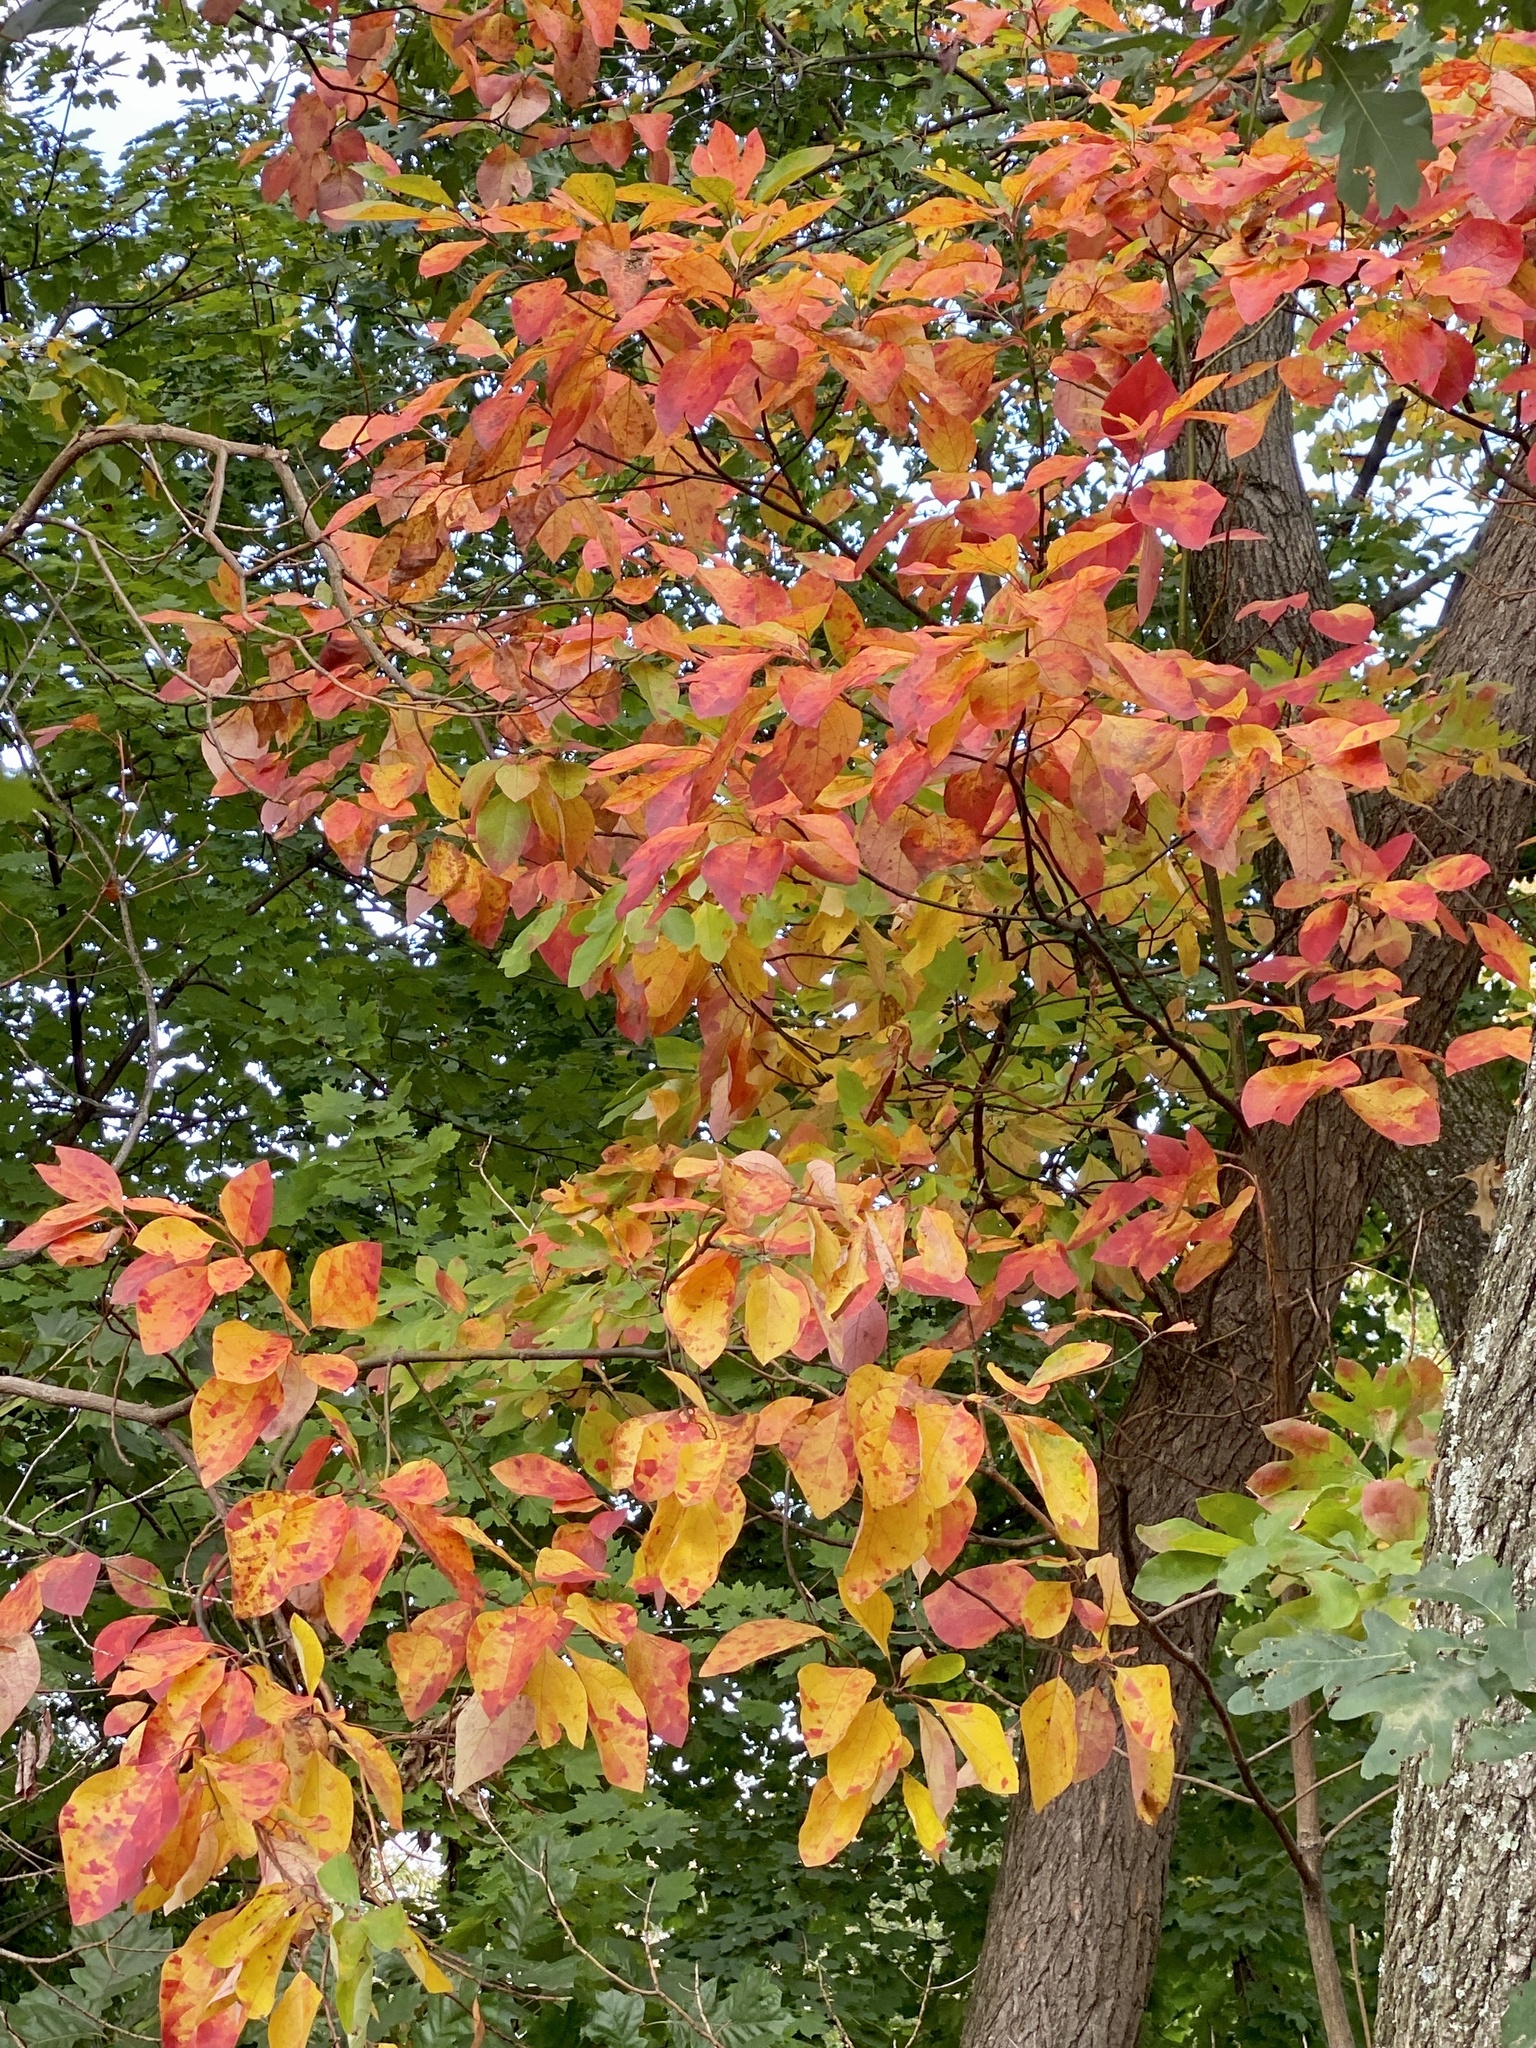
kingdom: Plantae
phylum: Tracheophyta
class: Magnoliopsida
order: Laurales
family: Lauraceae
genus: Sassafras
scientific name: Sassafras albidum
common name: Sassafras
